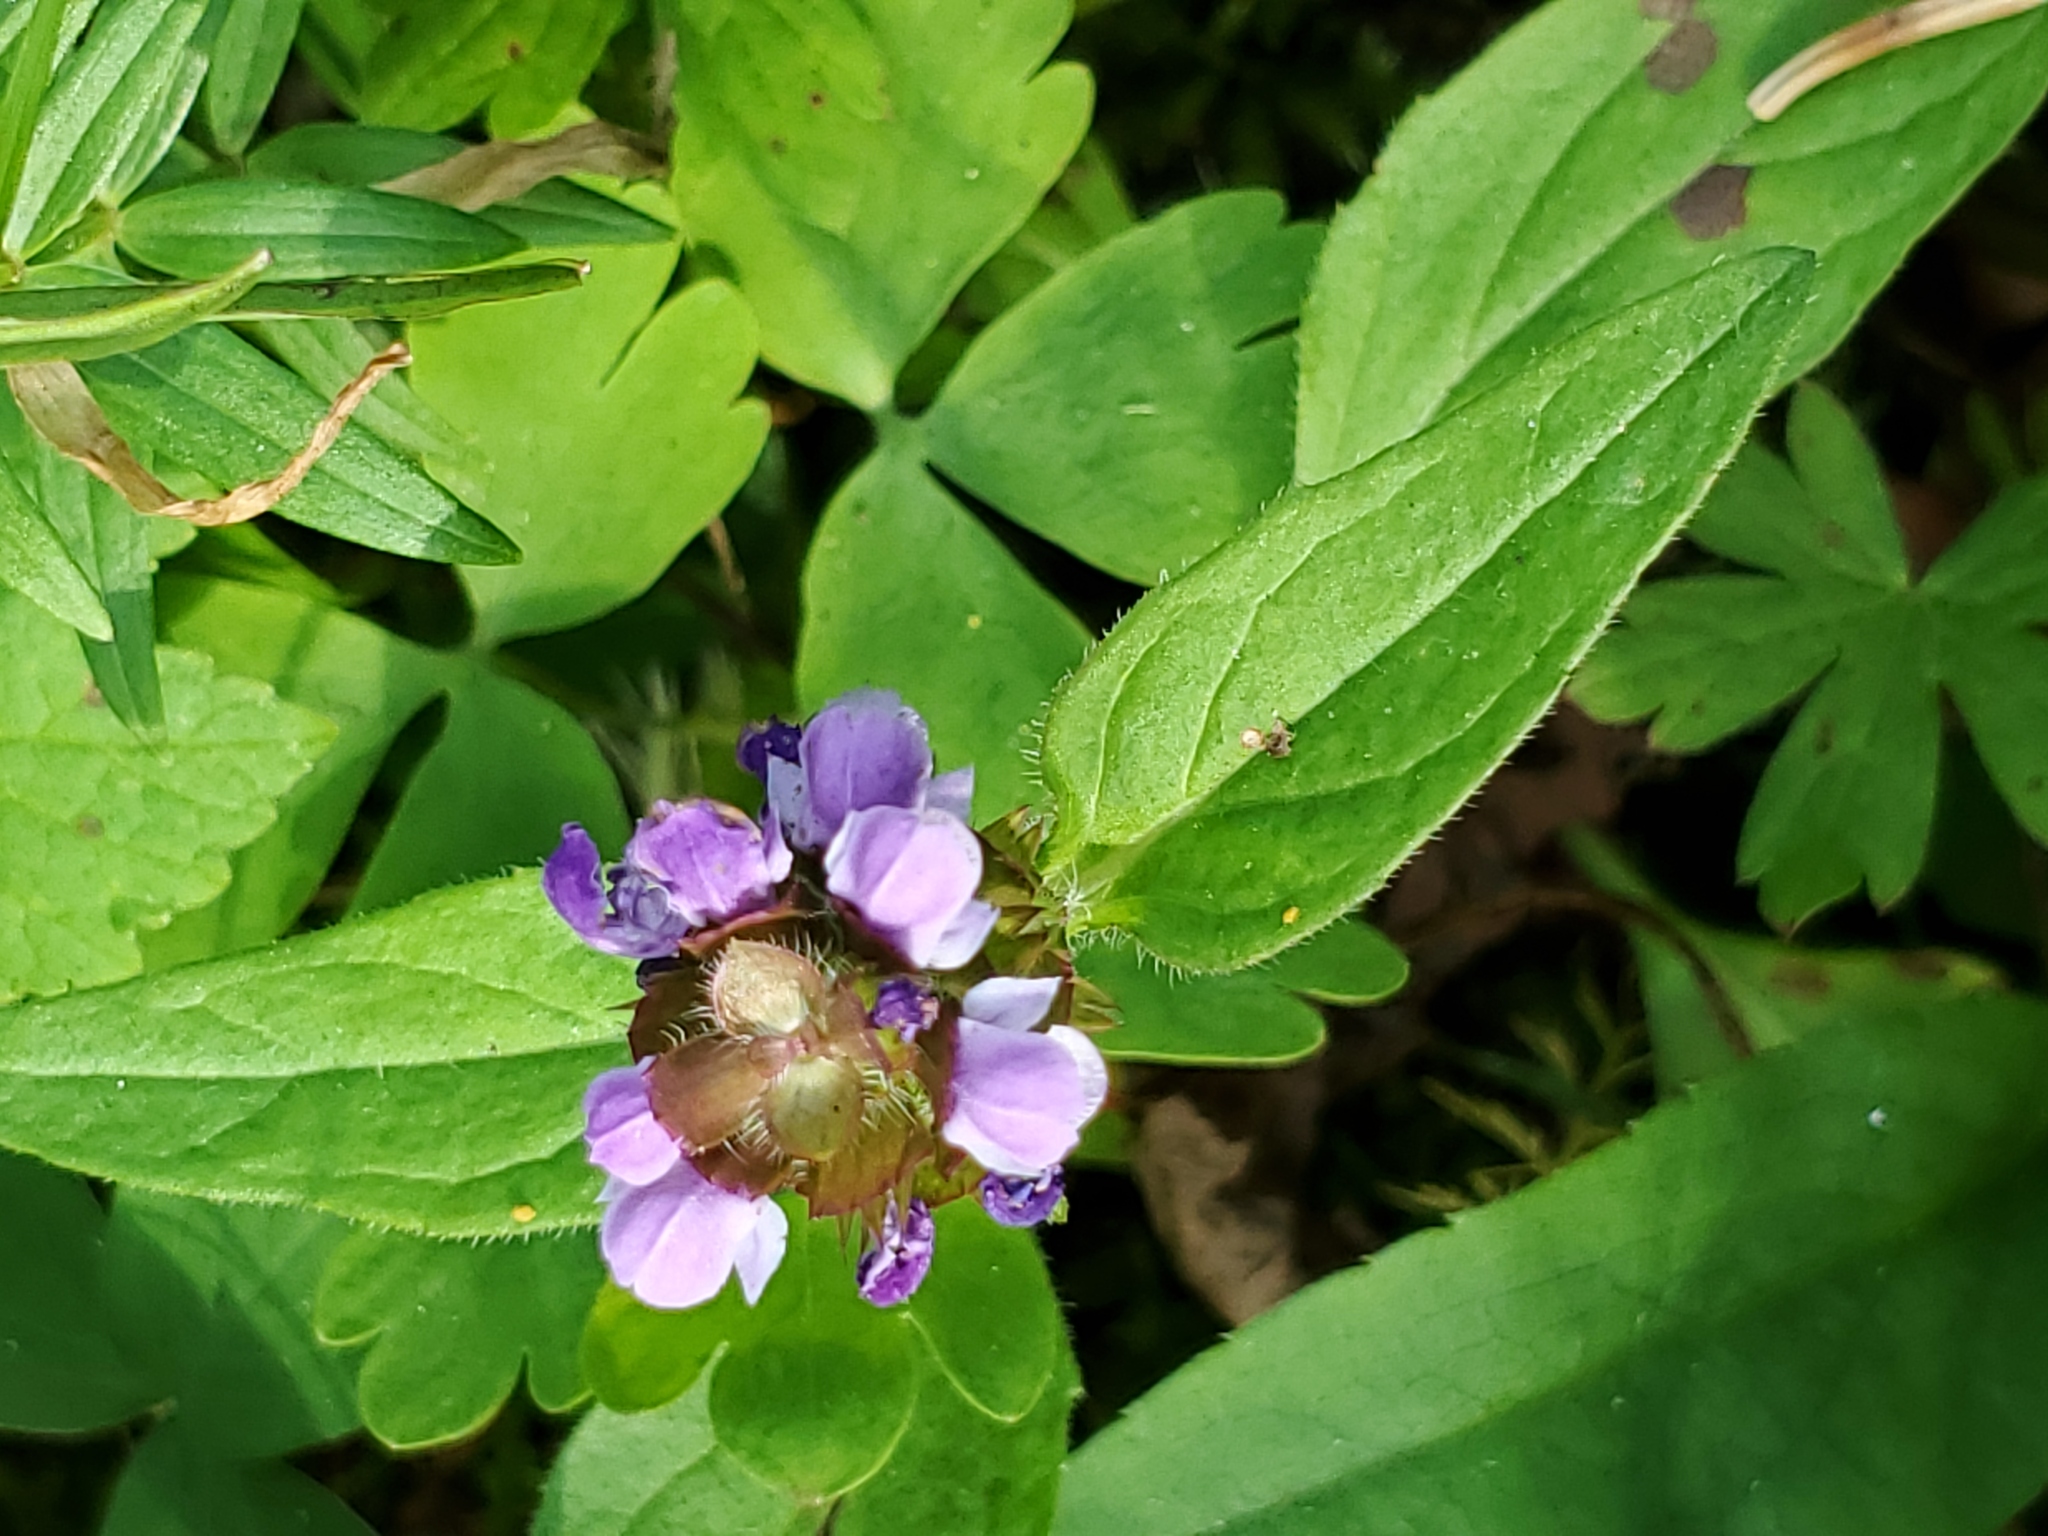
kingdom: Plantae
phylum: Tracheophyta
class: Magnoliopsida
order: Lamiales
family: Lamiaceae
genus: Prunella
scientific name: Prunella vulgaris
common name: Heal-all
